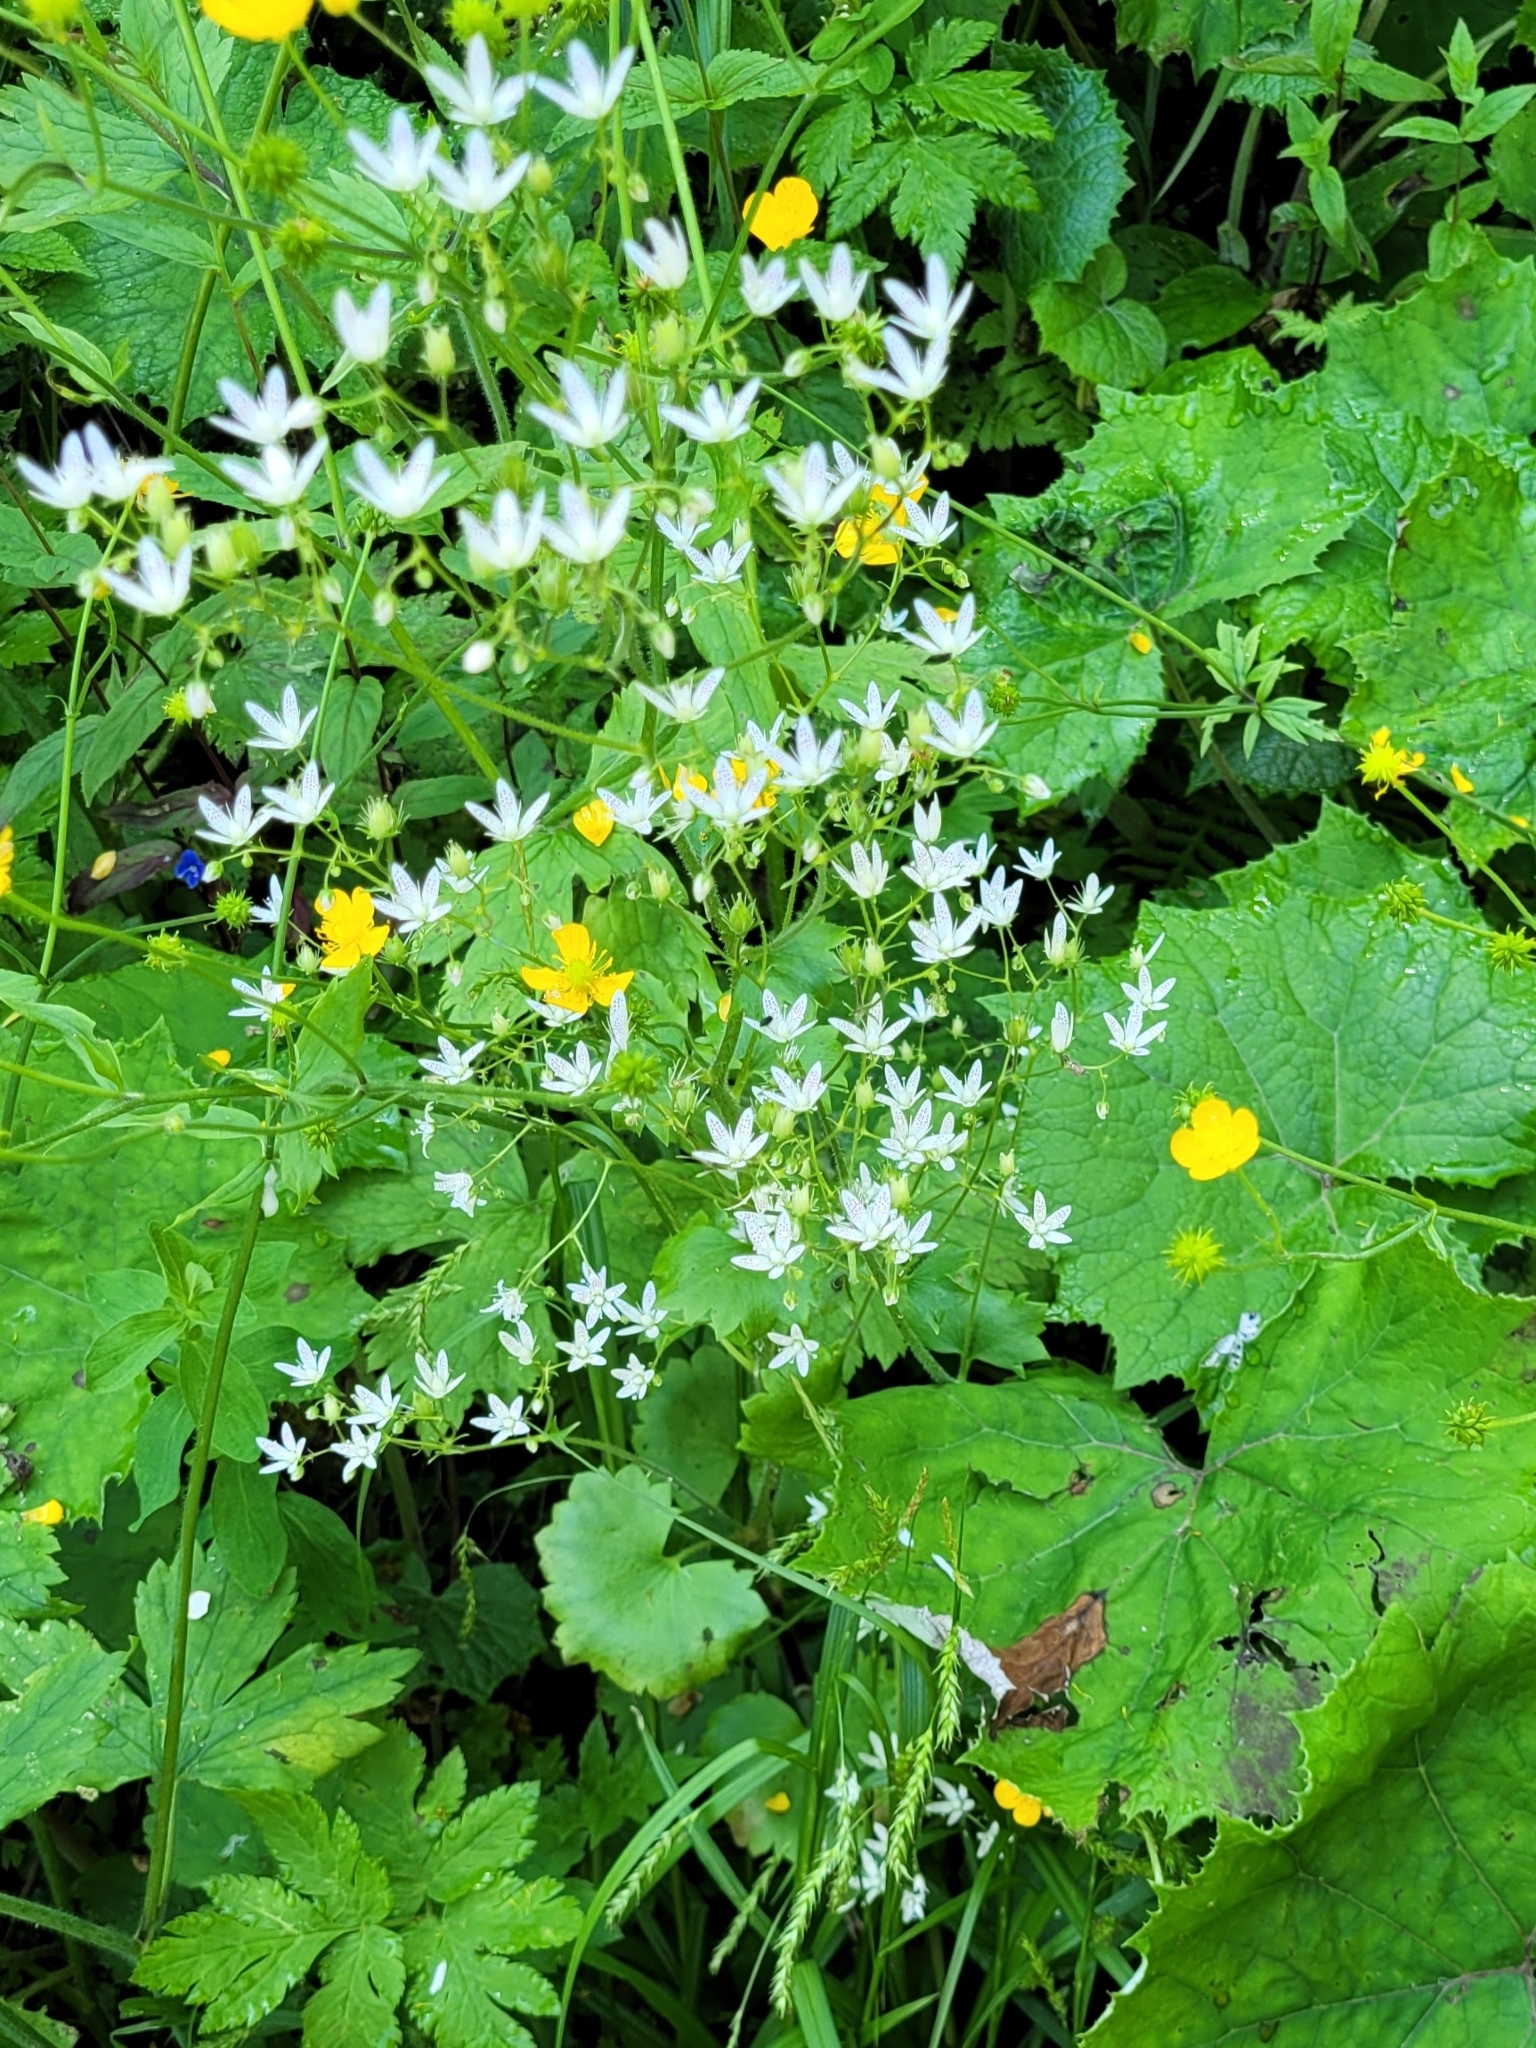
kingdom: Plantae
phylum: Tracheophyta
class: Magnoliopsida
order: Saxifragales
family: Saxifragaceae
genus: Saxifraga
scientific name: Saxifraga rotundifolia
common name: Round-leaved saxifrage
